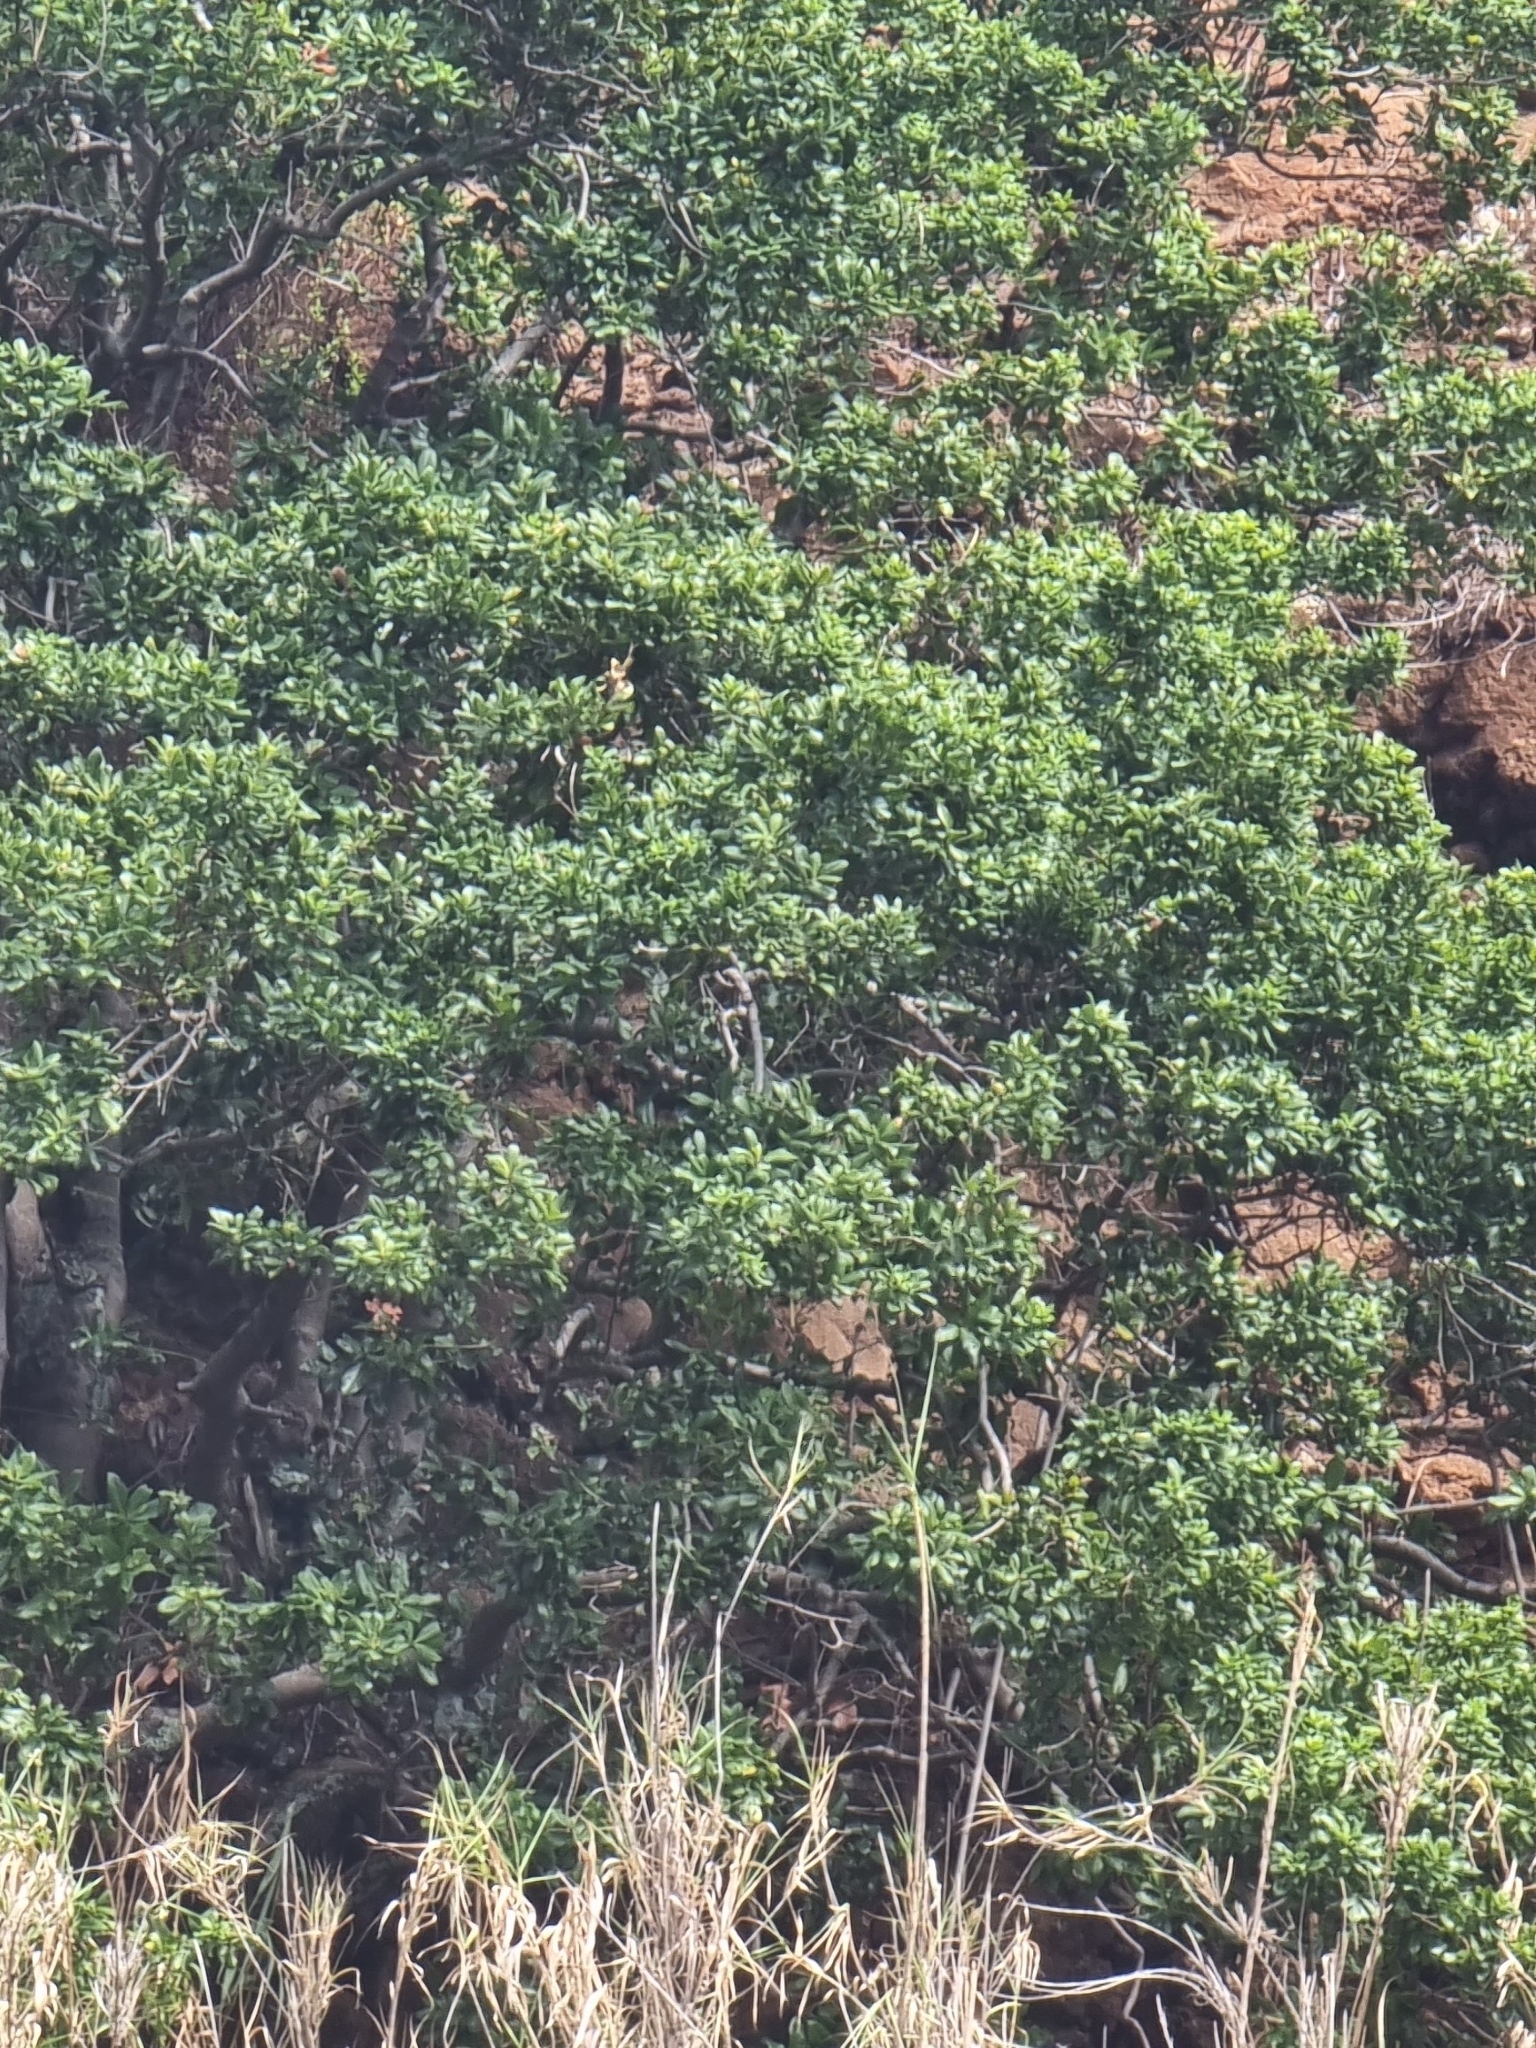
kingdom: Plantae
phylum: Tracheophyta
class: Magnoliopsida
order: Laurales
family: Lauraceae
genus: Apollonias
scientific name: Apollonias barbujana
